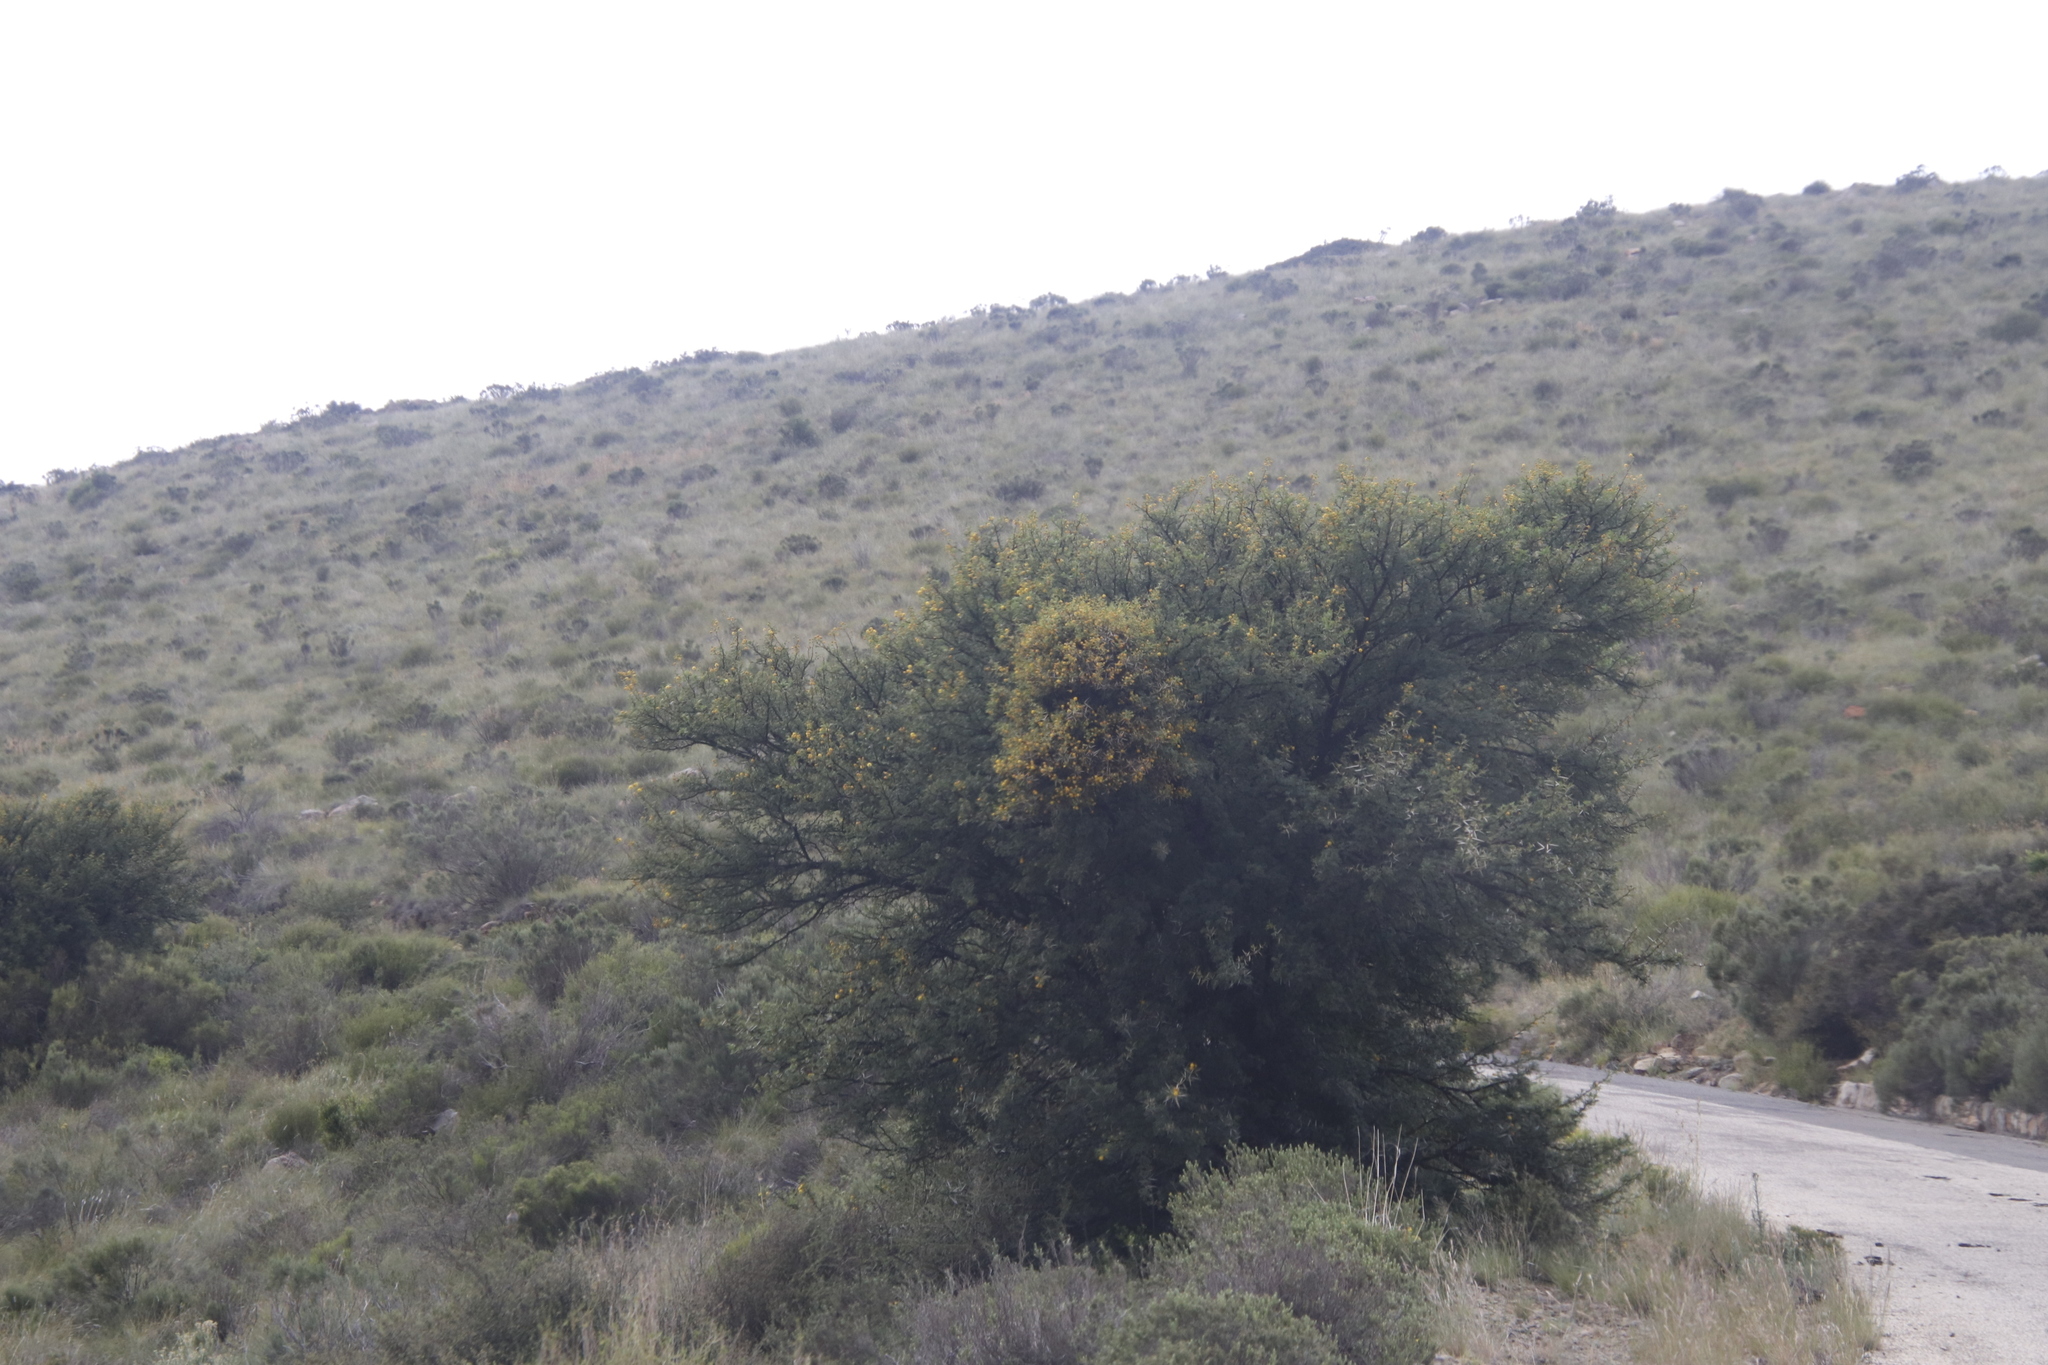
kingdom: Plantae
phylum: Tracheophyta
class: Magnoliopsida
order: Fabales
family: Fabaceae
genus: Vachellia
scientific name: Vachellia karroo
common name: Sweet thorn
